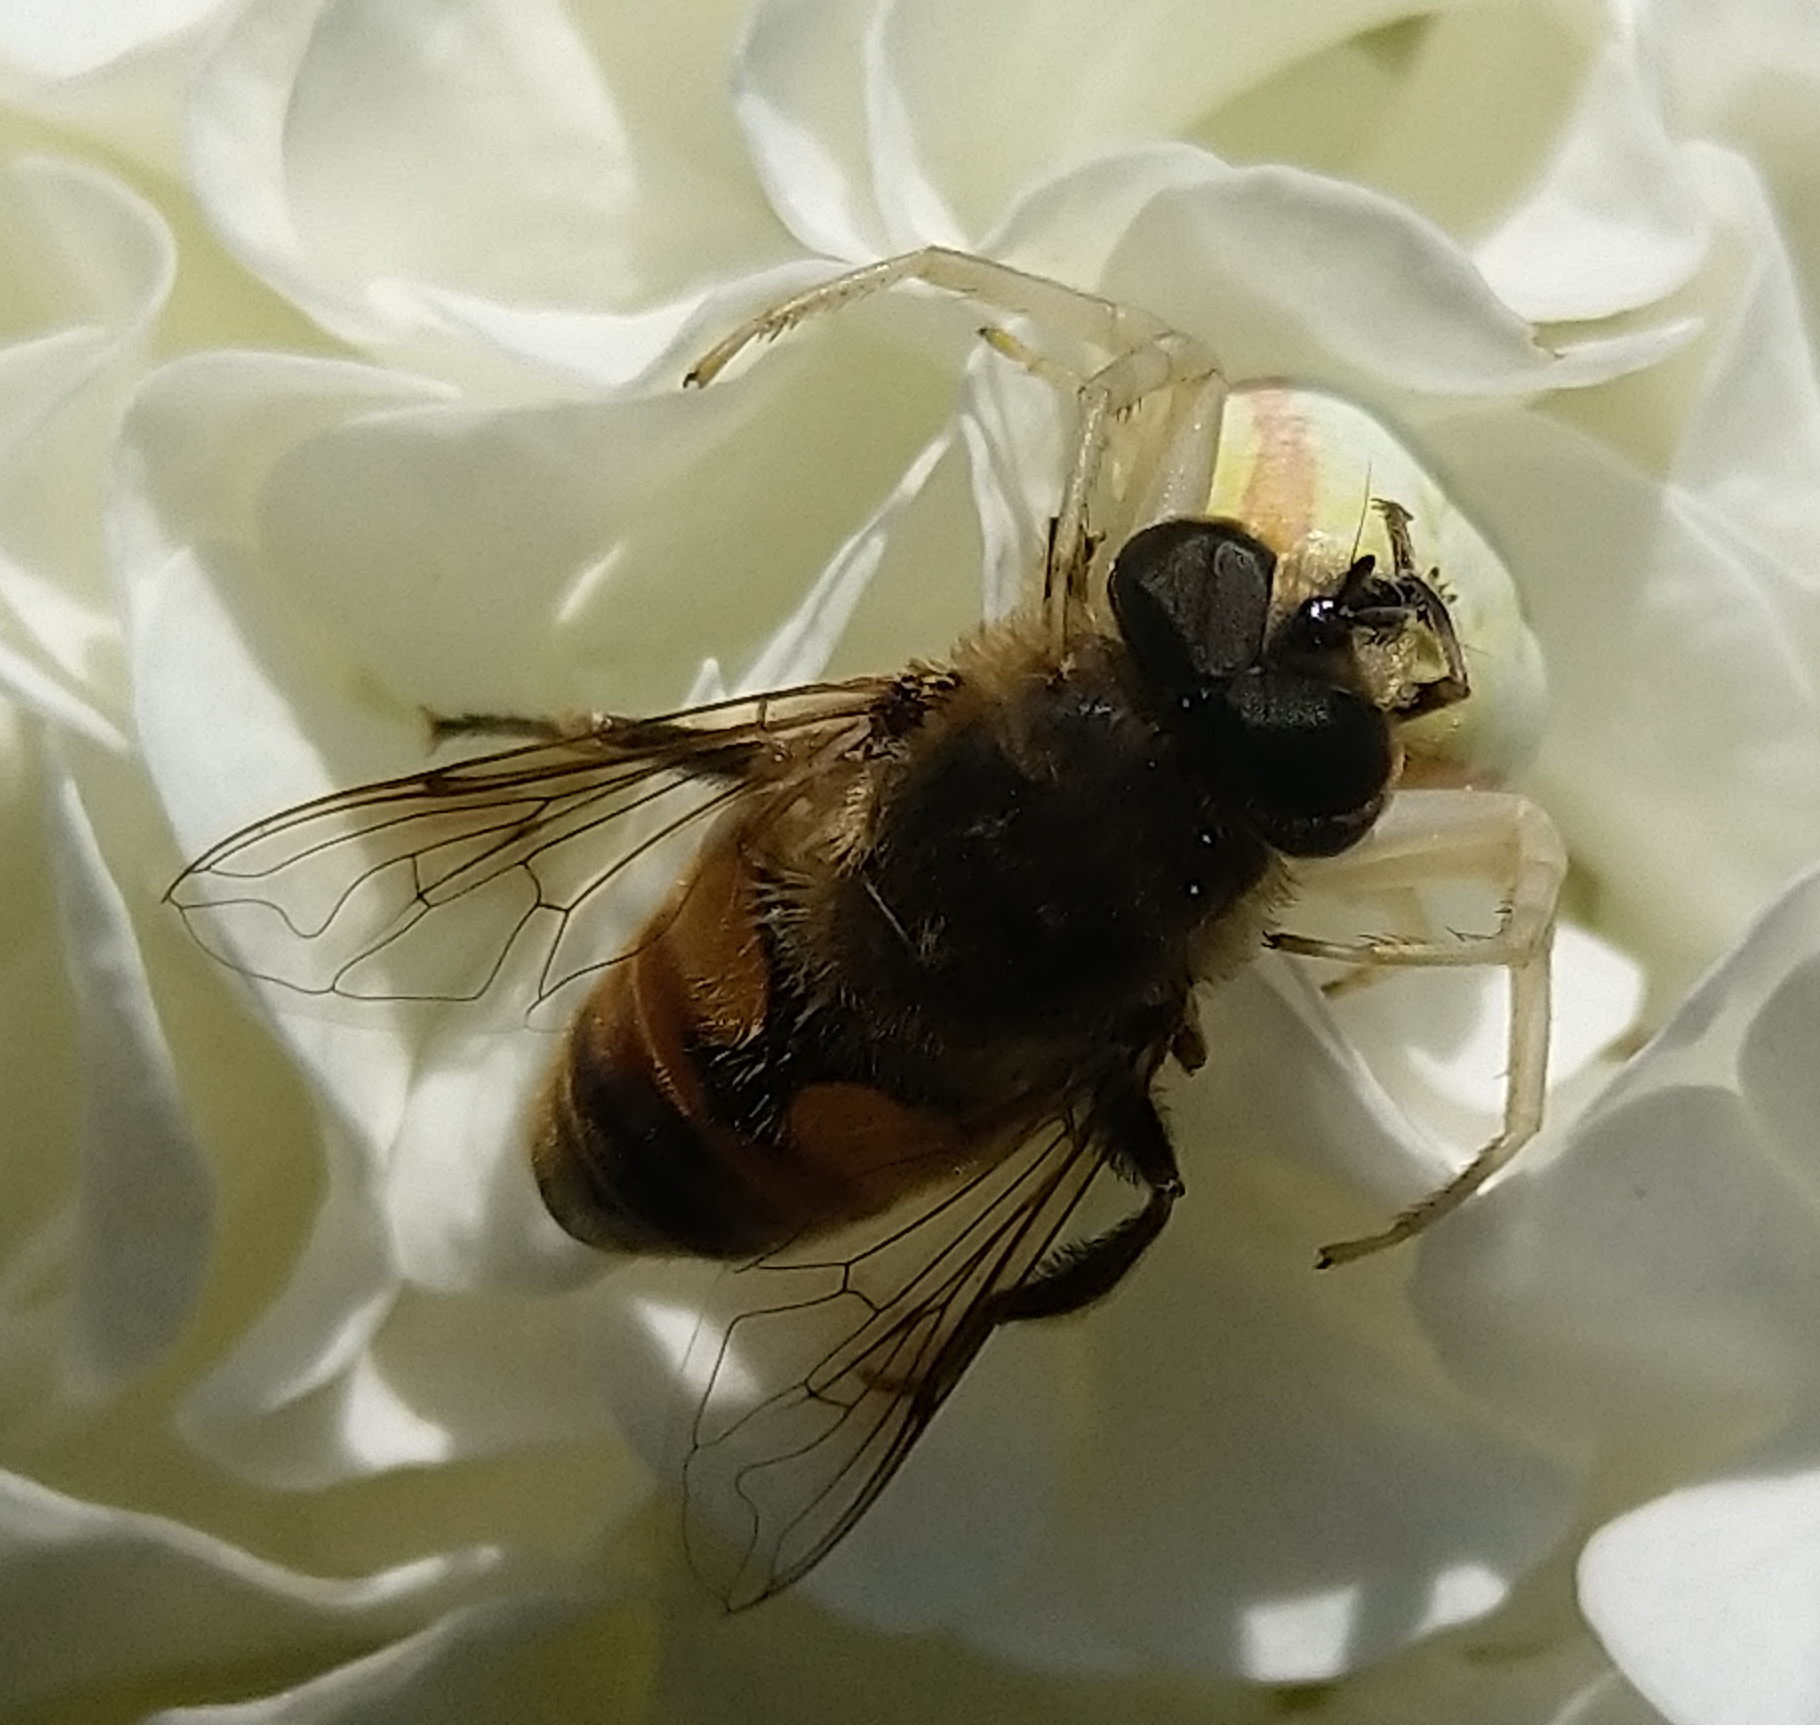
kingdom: Animalia
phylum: Arthropoda
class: Insecta
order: Diptera
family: Syrphidae
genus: Eristalis
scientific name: Eristalis tenax
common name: Drone fly
